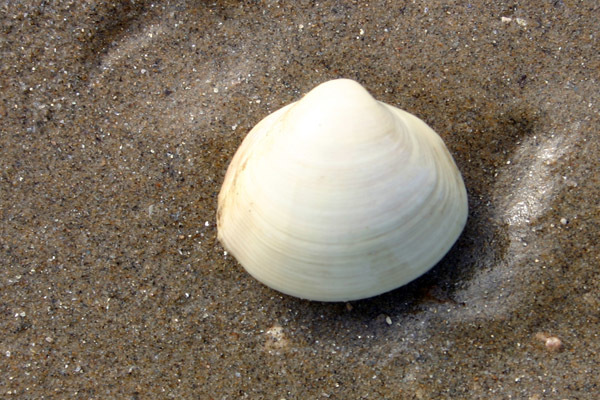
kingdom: Animalia
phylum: Mollusca
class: Bivalvia
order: Venerida
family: Mactridae
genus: Mactra
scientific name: Mactra quadrangularis
